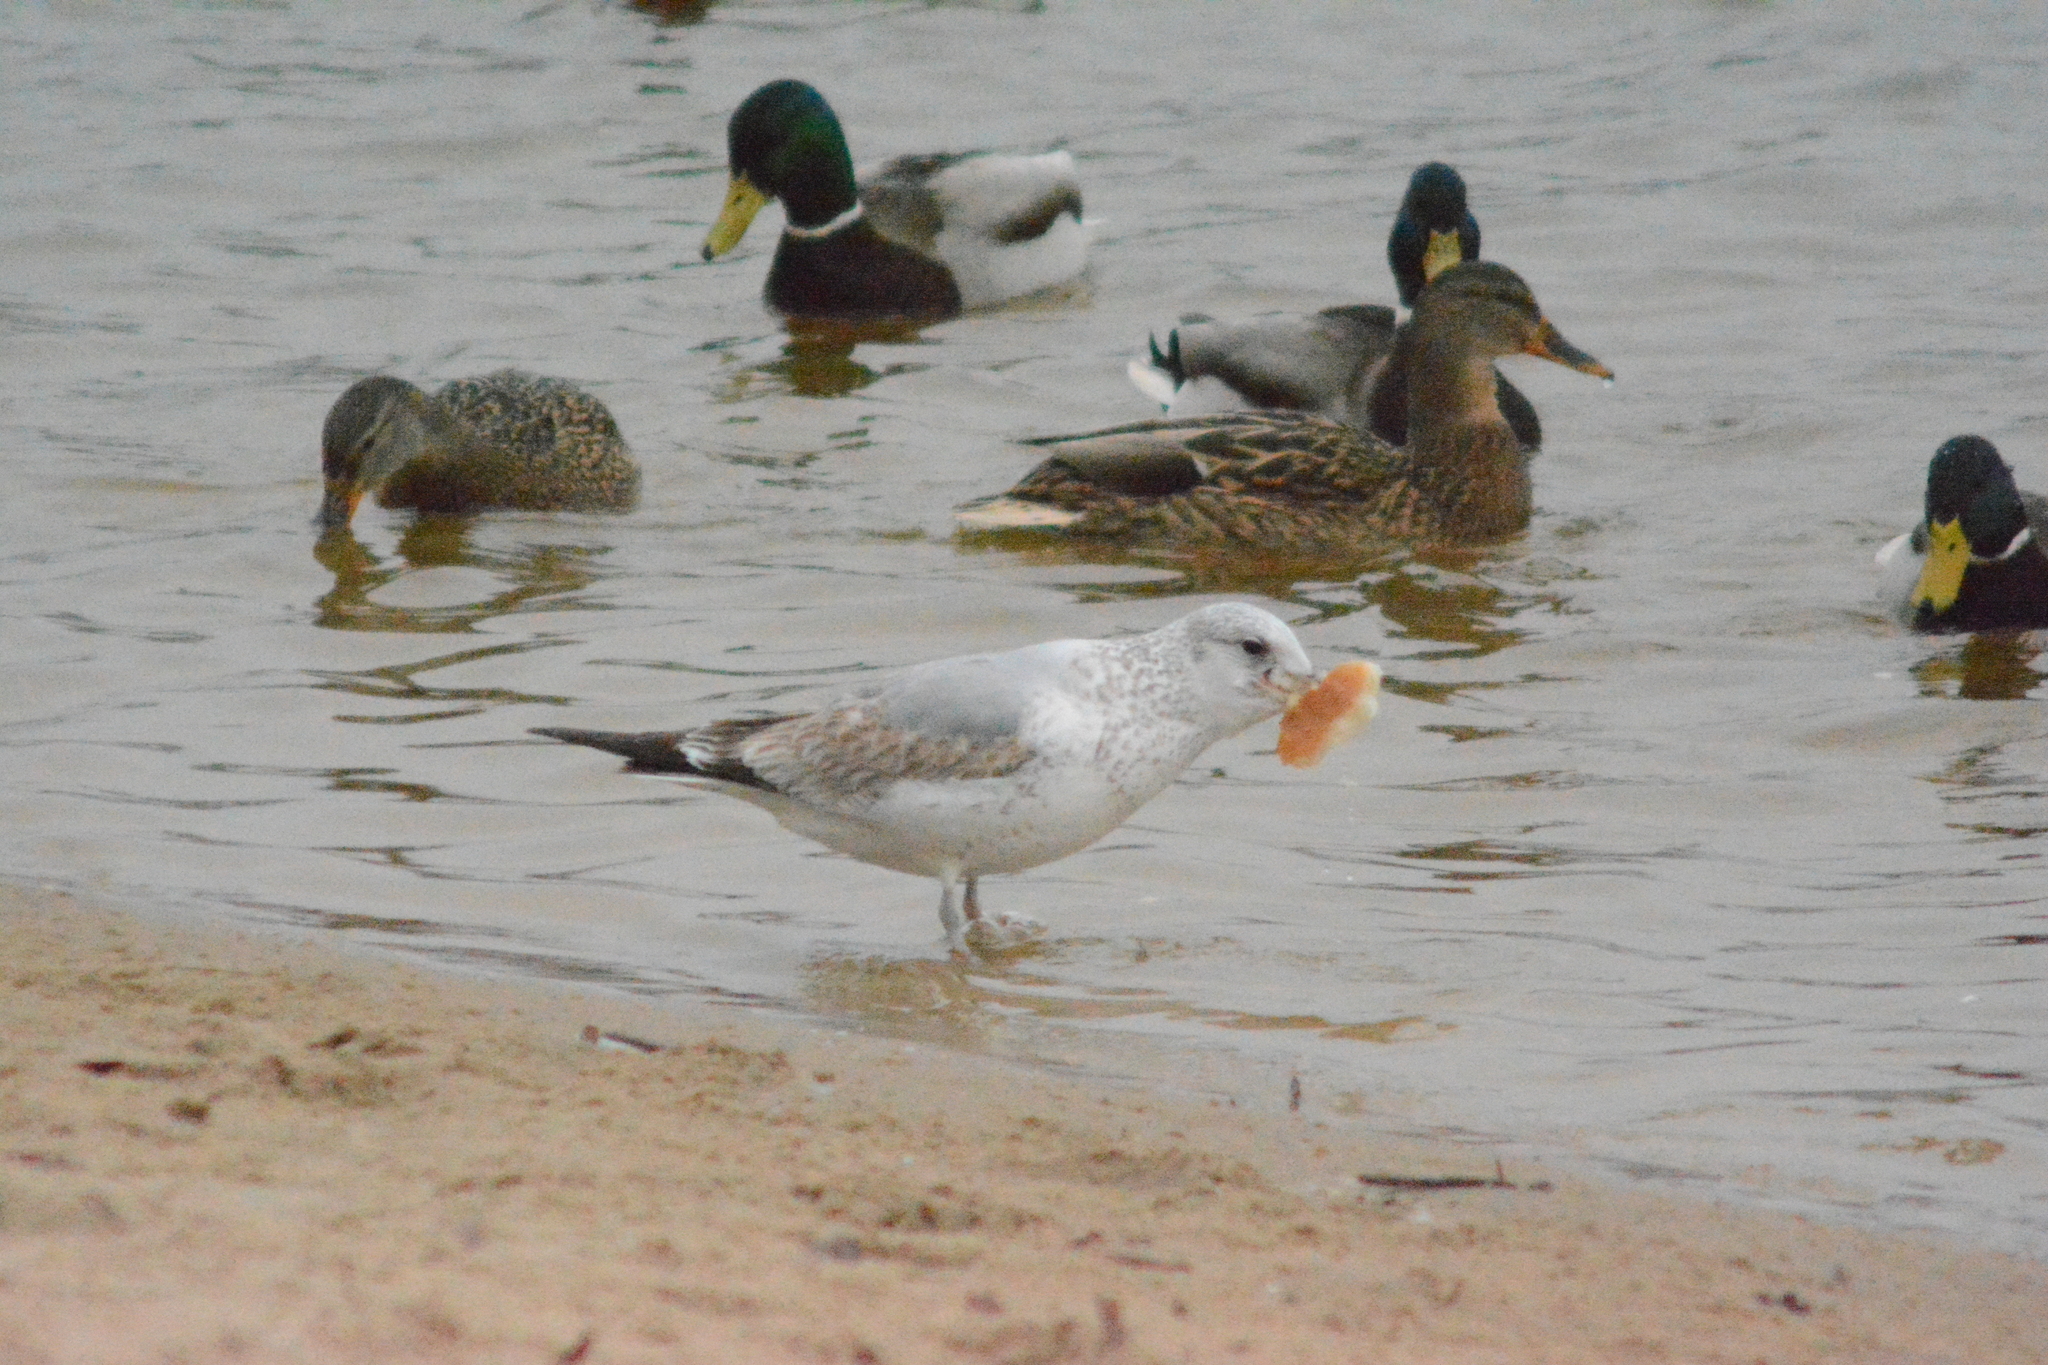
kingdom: Animalia
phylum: Chordata
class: Aves
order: Charadriiformes
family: Laridae
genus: Larus
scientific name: Larus canus
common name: Mew gull
